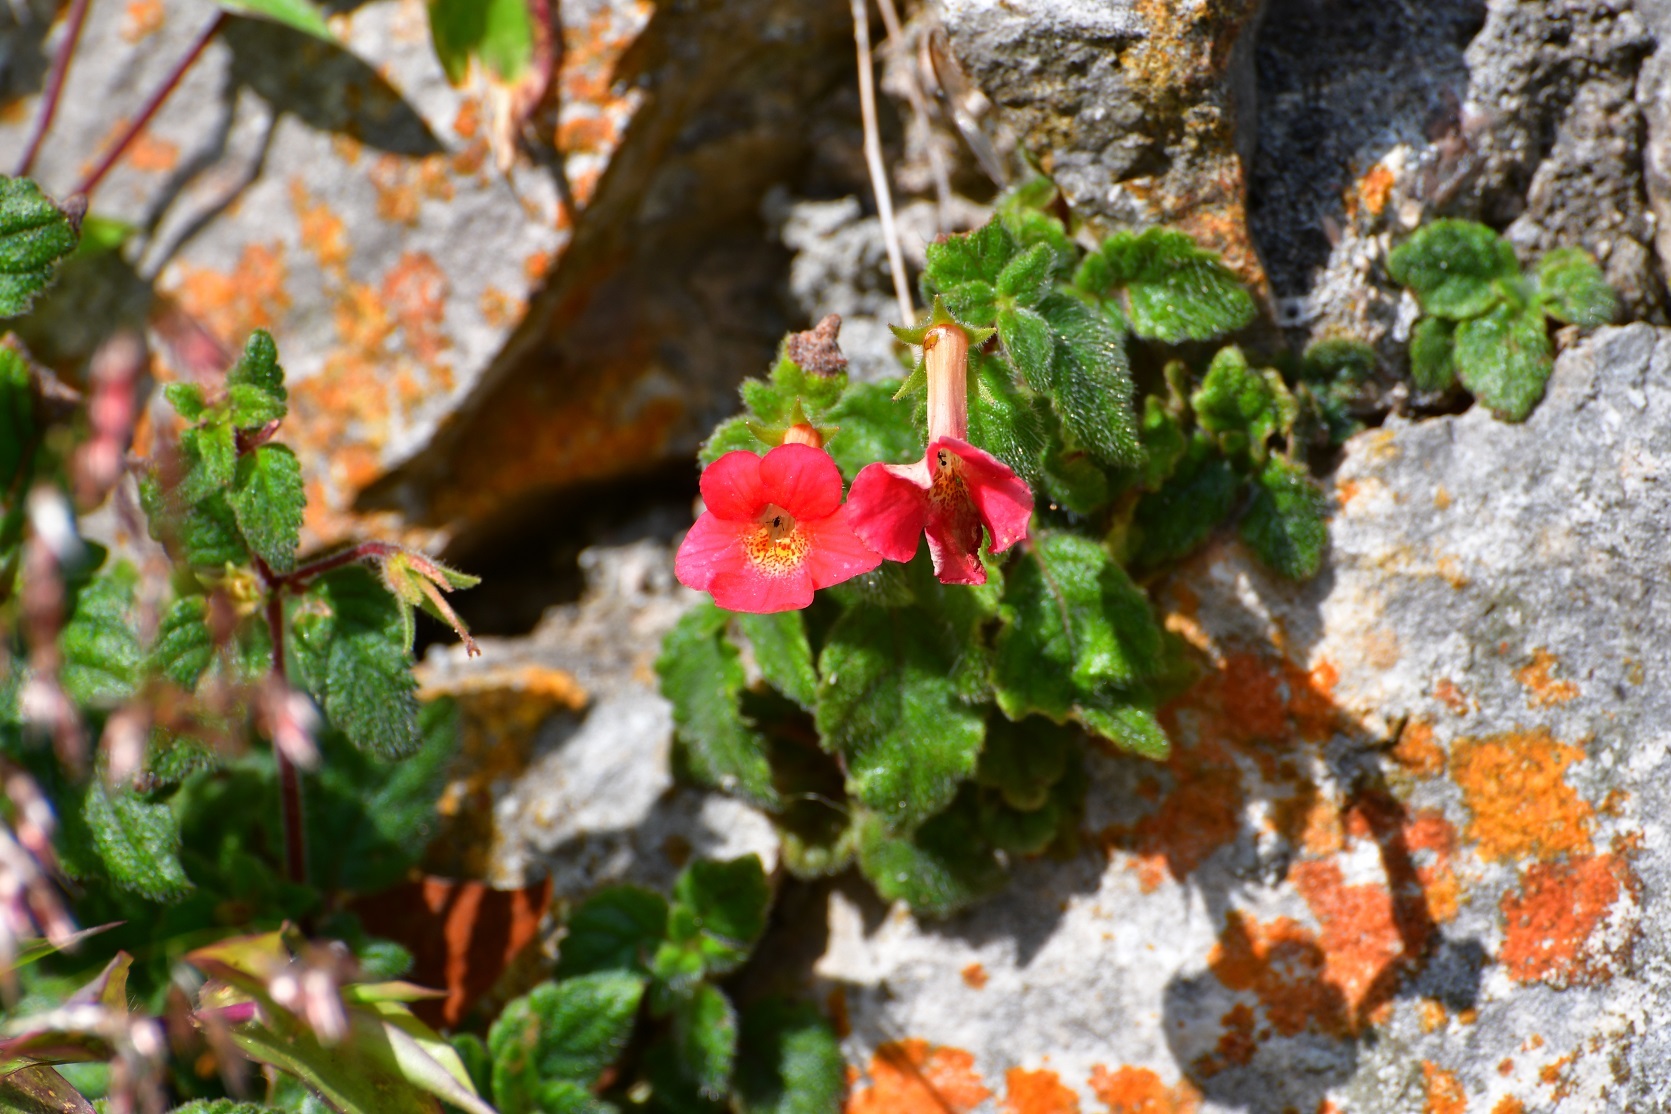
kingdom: Plantae
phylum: Tracheophyta
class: Magnoliopsida
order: Lamiales
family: Gesneriaceae
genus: Achimenes
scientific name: Achimenes erecta
